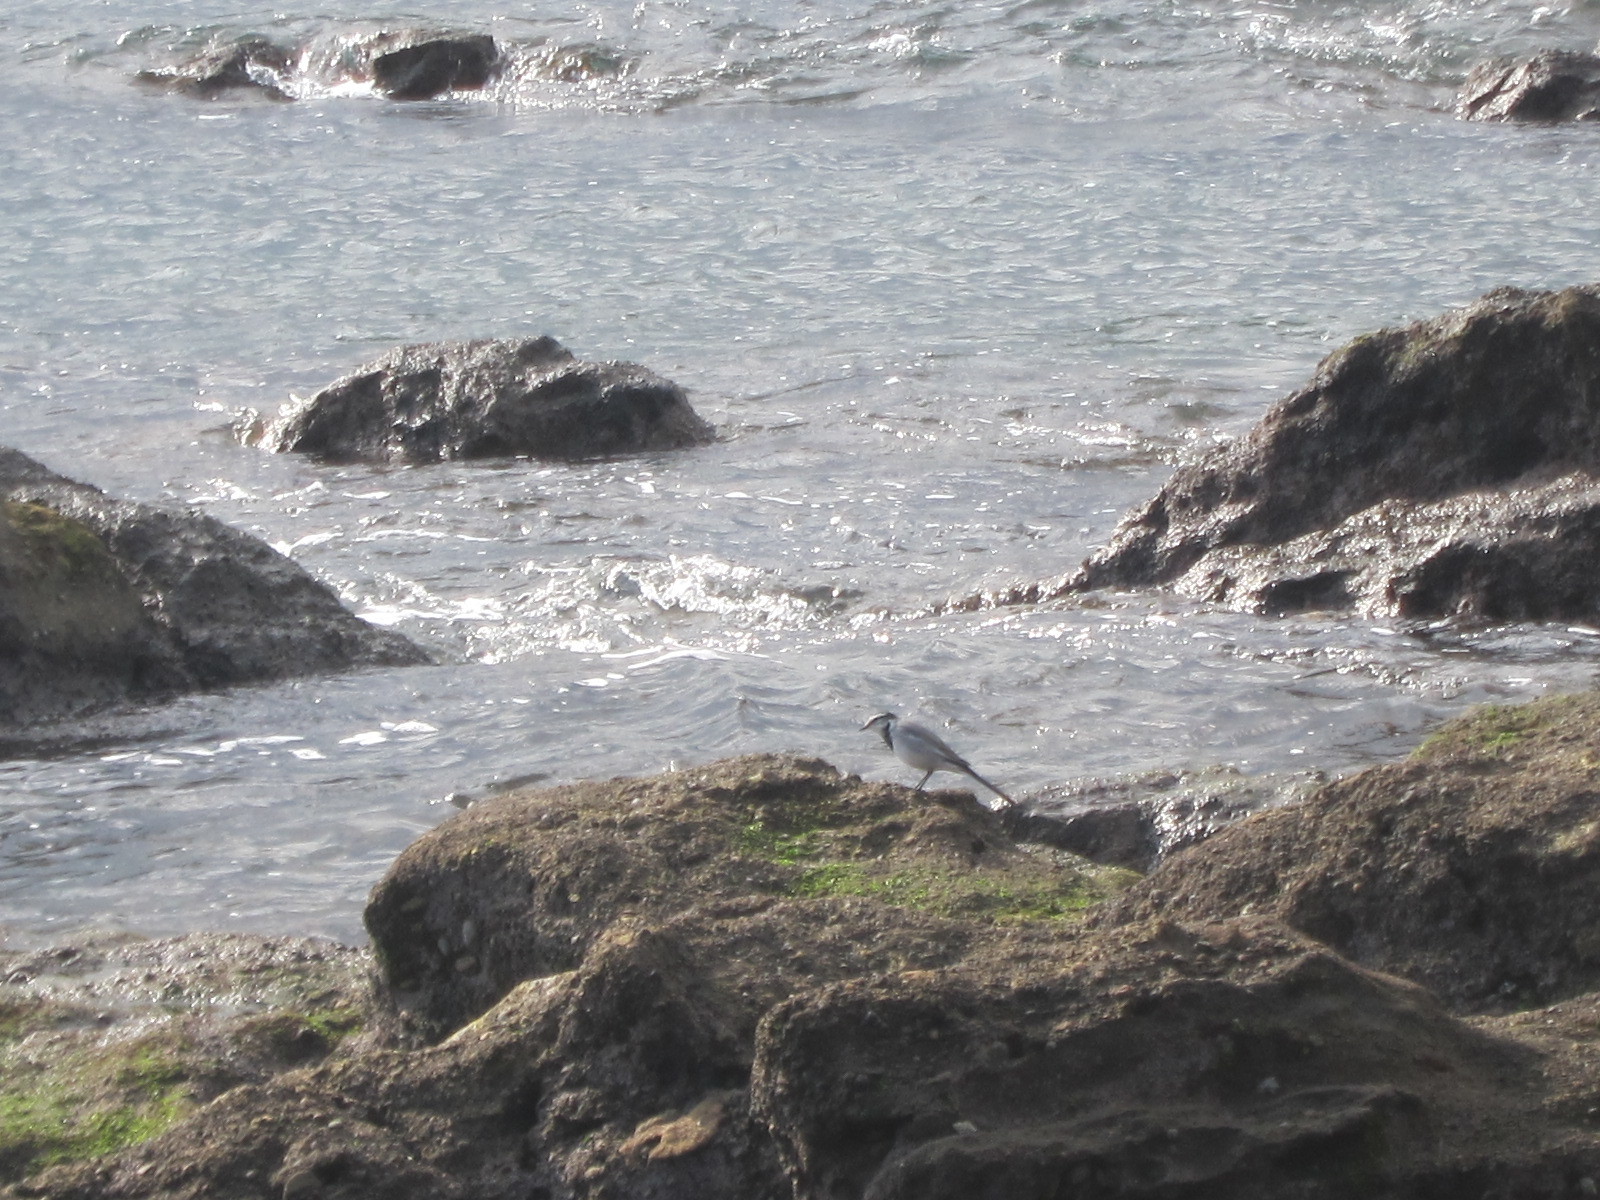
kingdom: Animalia
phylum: Chordata
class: Aves
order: Passeriformes
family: Motacillidae
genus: Motacilla
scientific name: Motacilla alba
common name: White wagtail
